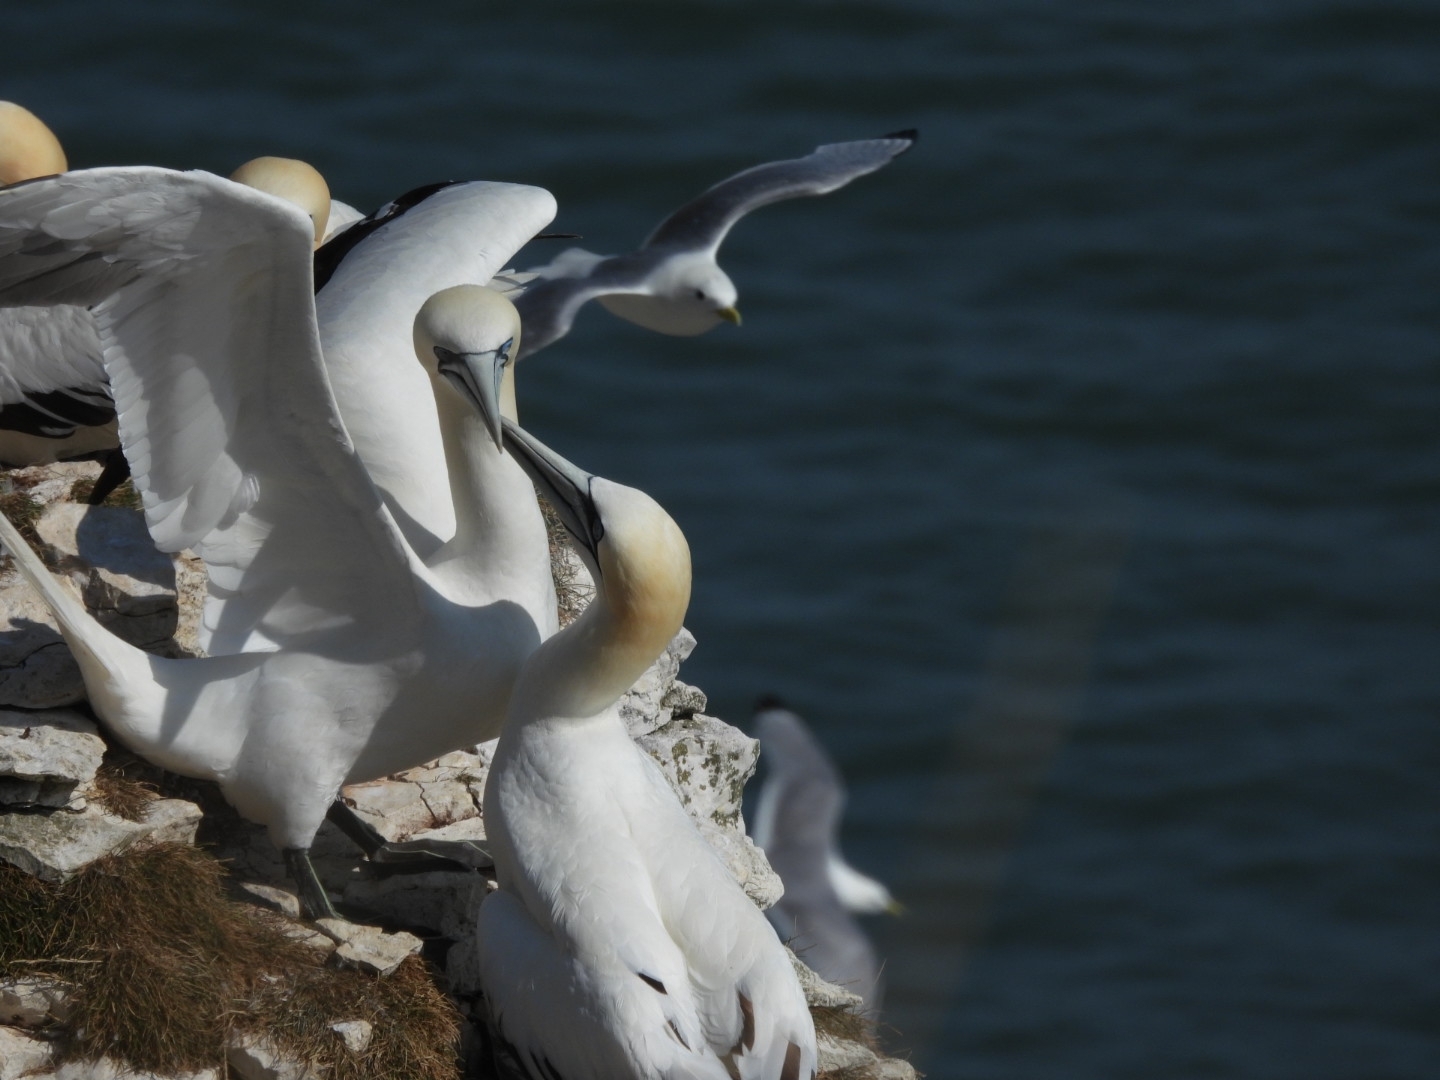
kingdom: Animalia
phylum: Chordata
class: Aves
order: Suliformes
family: Sulidae
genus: Morus
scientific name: Morus bassanus
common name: Northern gannet
